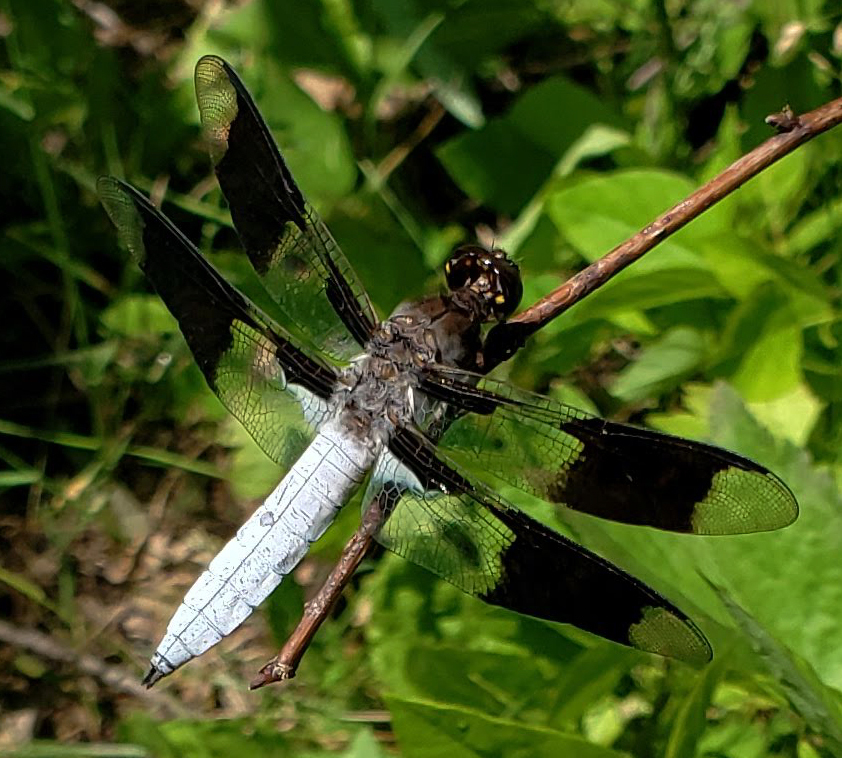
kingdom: Animalia
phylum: Arthropoda
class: Insecta
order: Odonata
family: Libellulidae
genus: Plathemis
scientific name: Plathemis lydia
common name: Common whitetail
